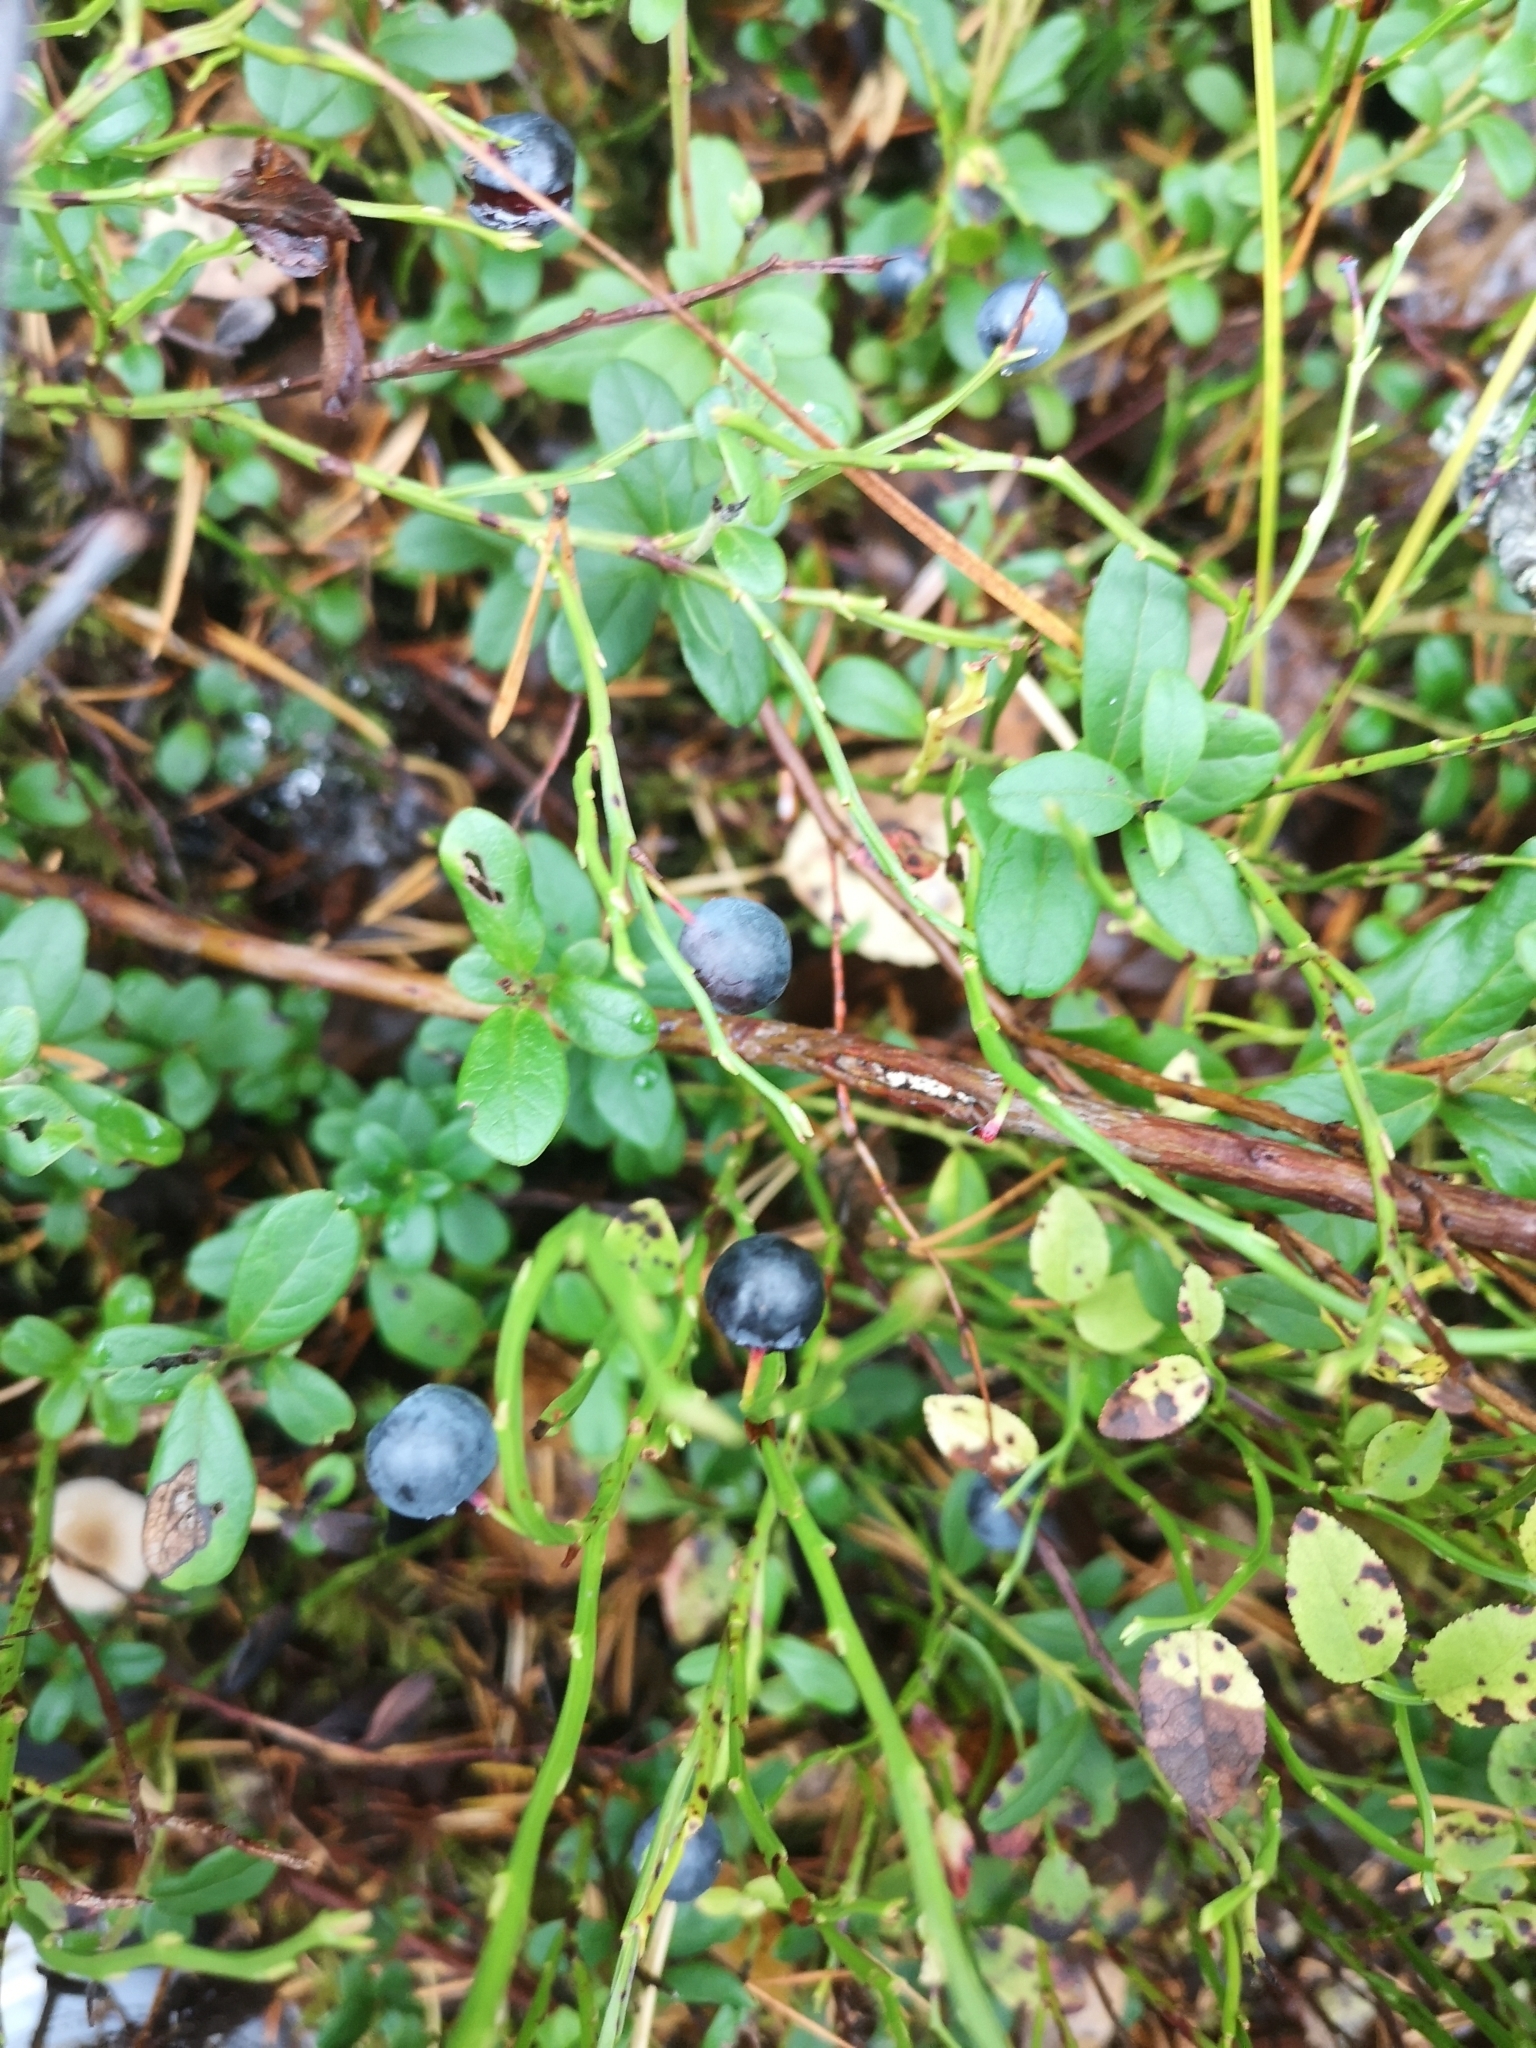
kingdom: Plantae
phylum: Tracheophyta
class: Magnoliopsida
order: Ericales
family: Ericaceae
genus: Vaccinium
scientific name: Vaccinium myrtillus
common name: Bilberry
